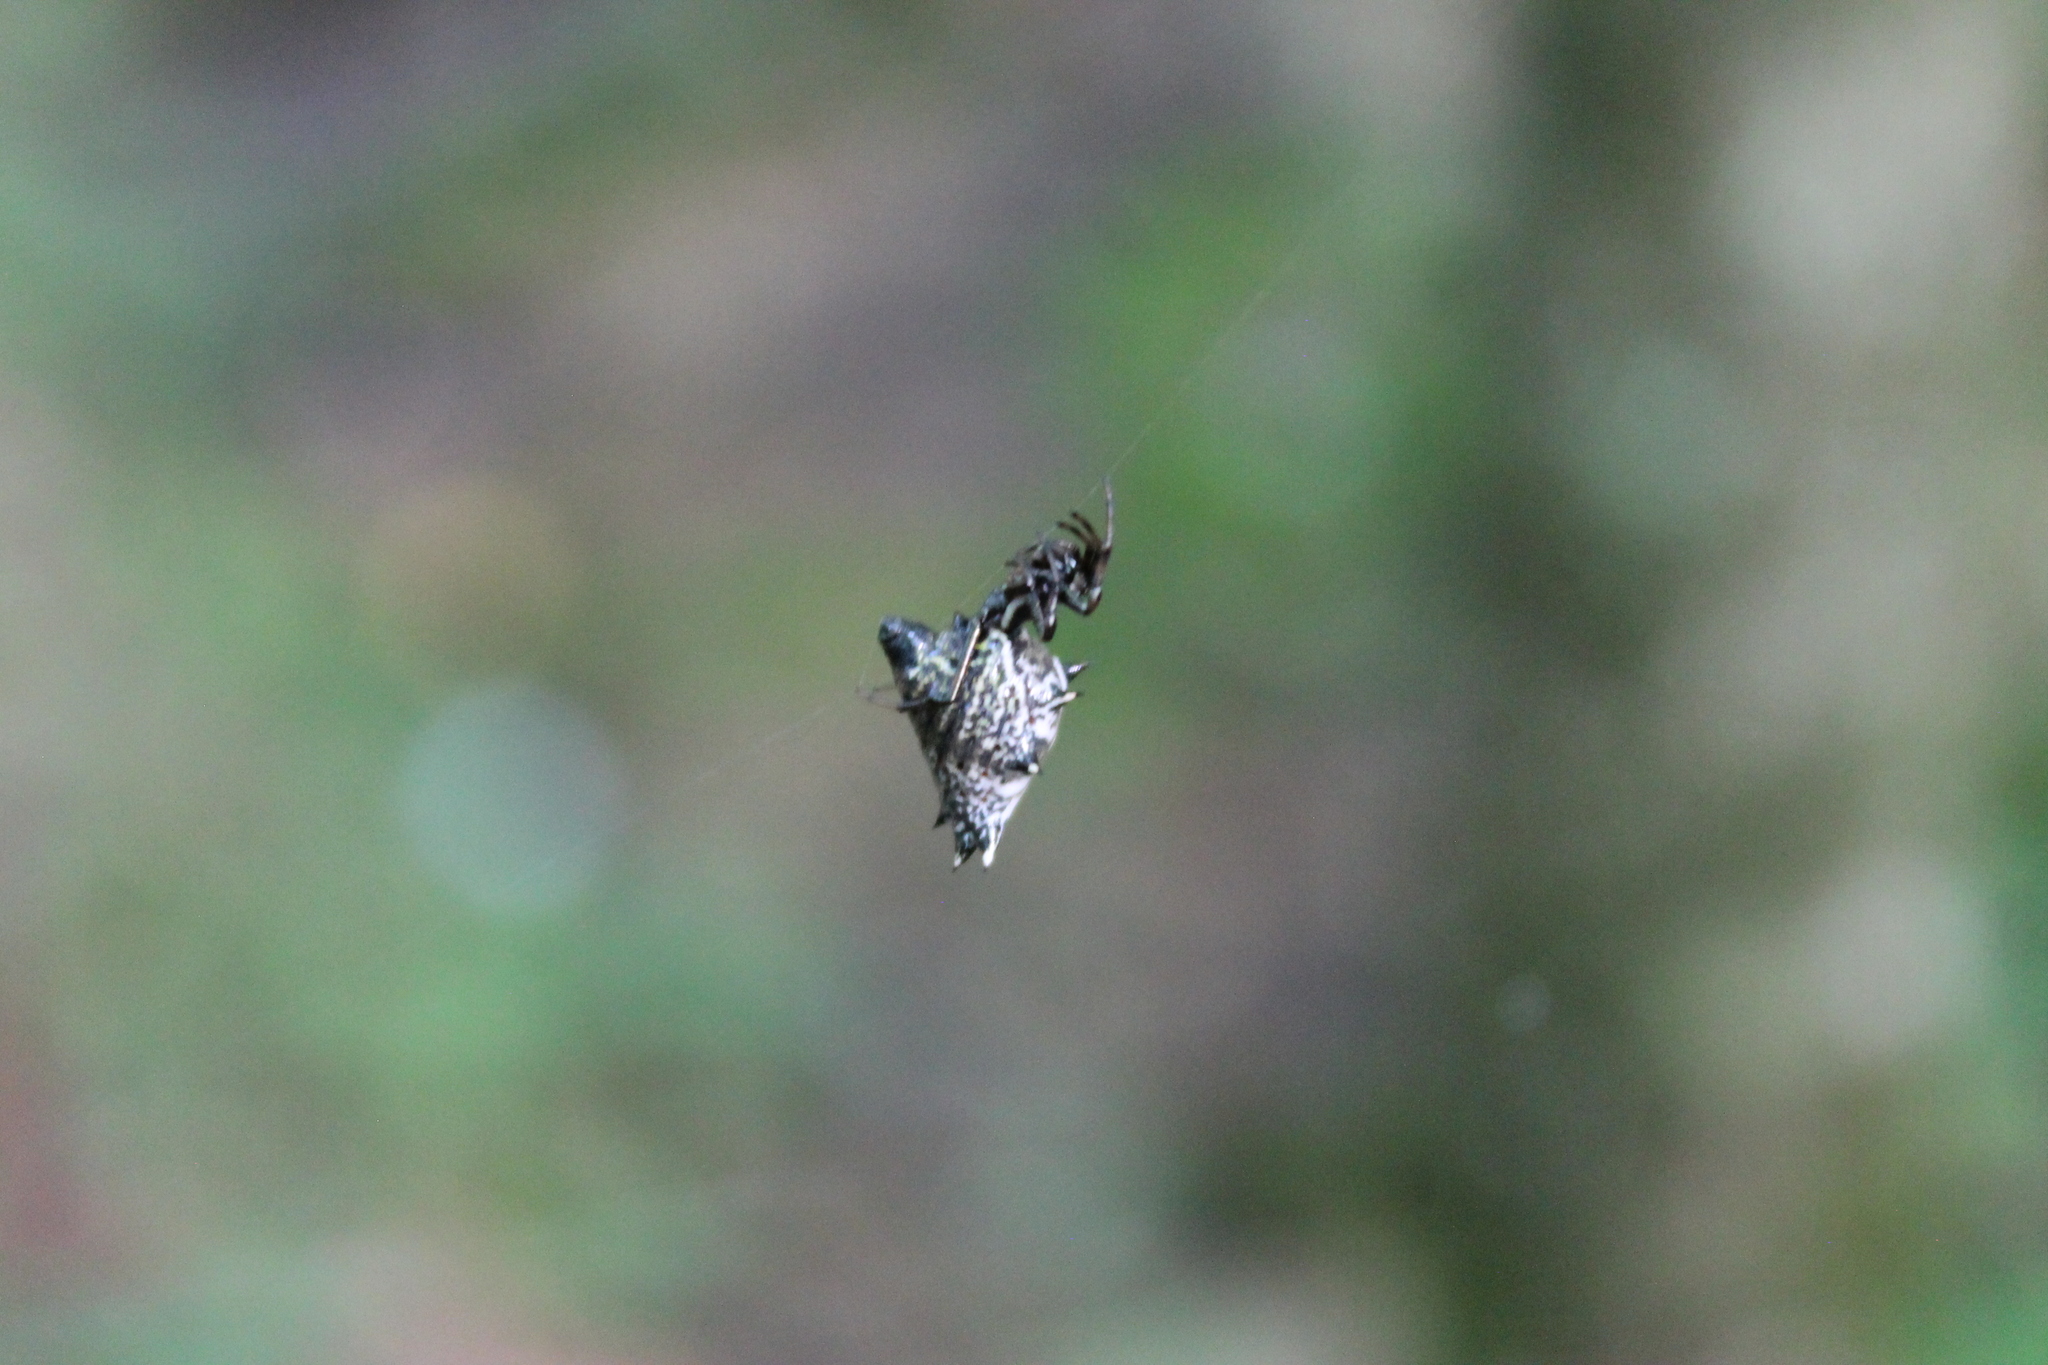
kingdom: Animalia
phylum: Arthropoda
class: Arachnida
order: Araneae
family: Araneidae
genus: Micrathena
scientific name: Micrathena gracilis
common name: Orb weavers
